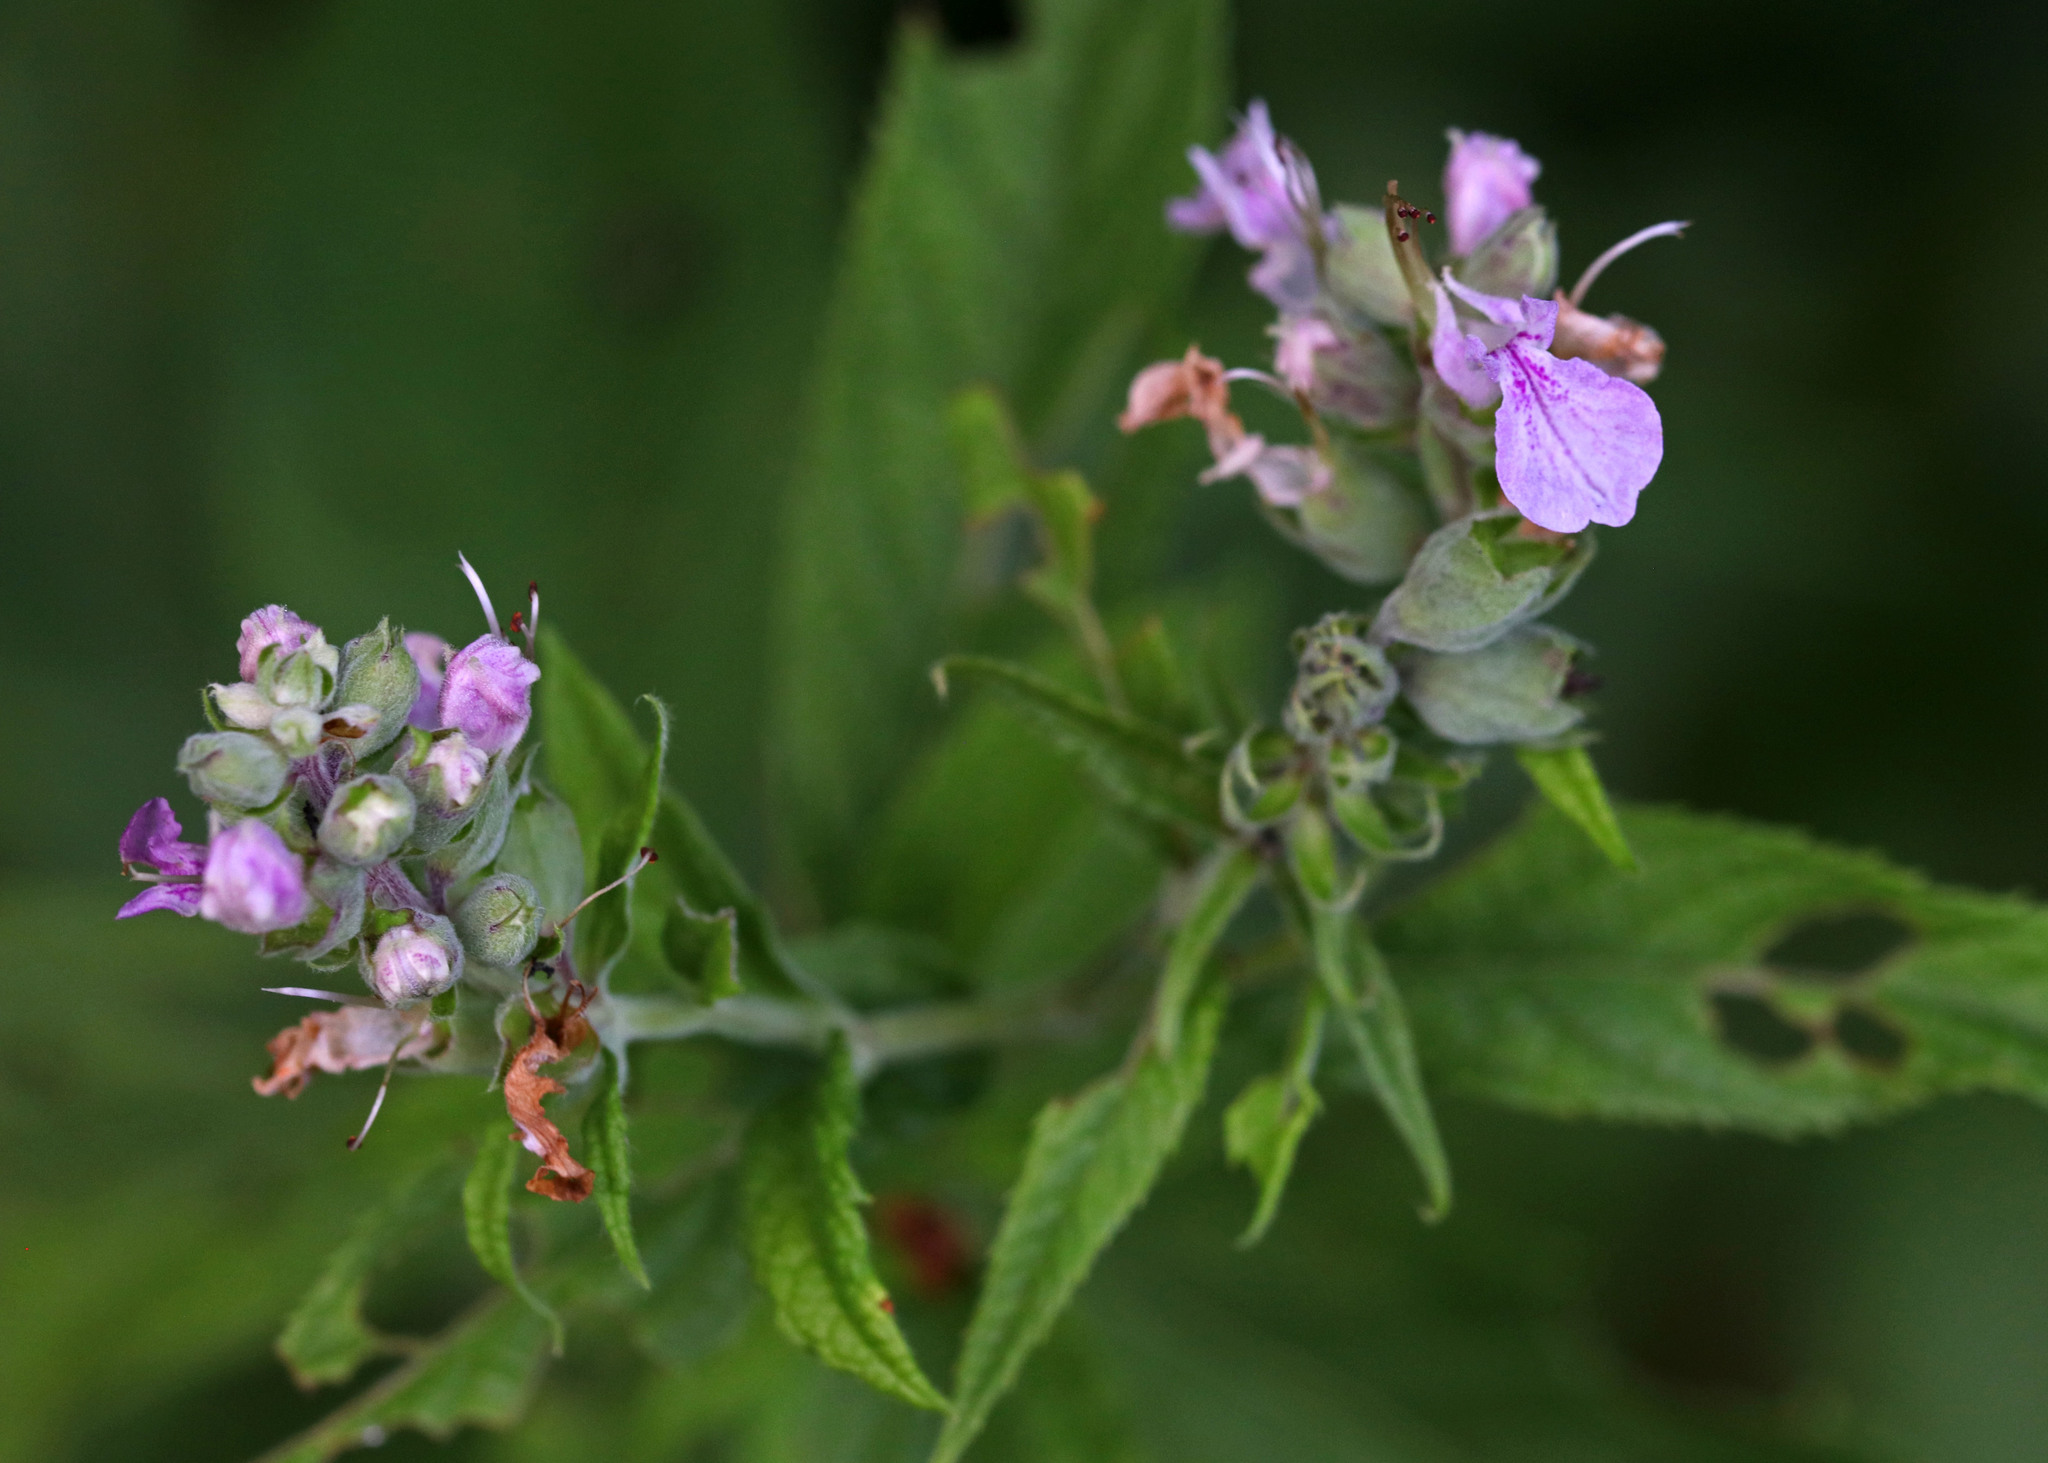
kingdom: Plantae
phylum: Tracheophyta
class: Magnoliopsida
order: Lamiales
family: Lamiaceae
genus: Teucrium
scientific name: Teucrium canadense
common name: American germander
